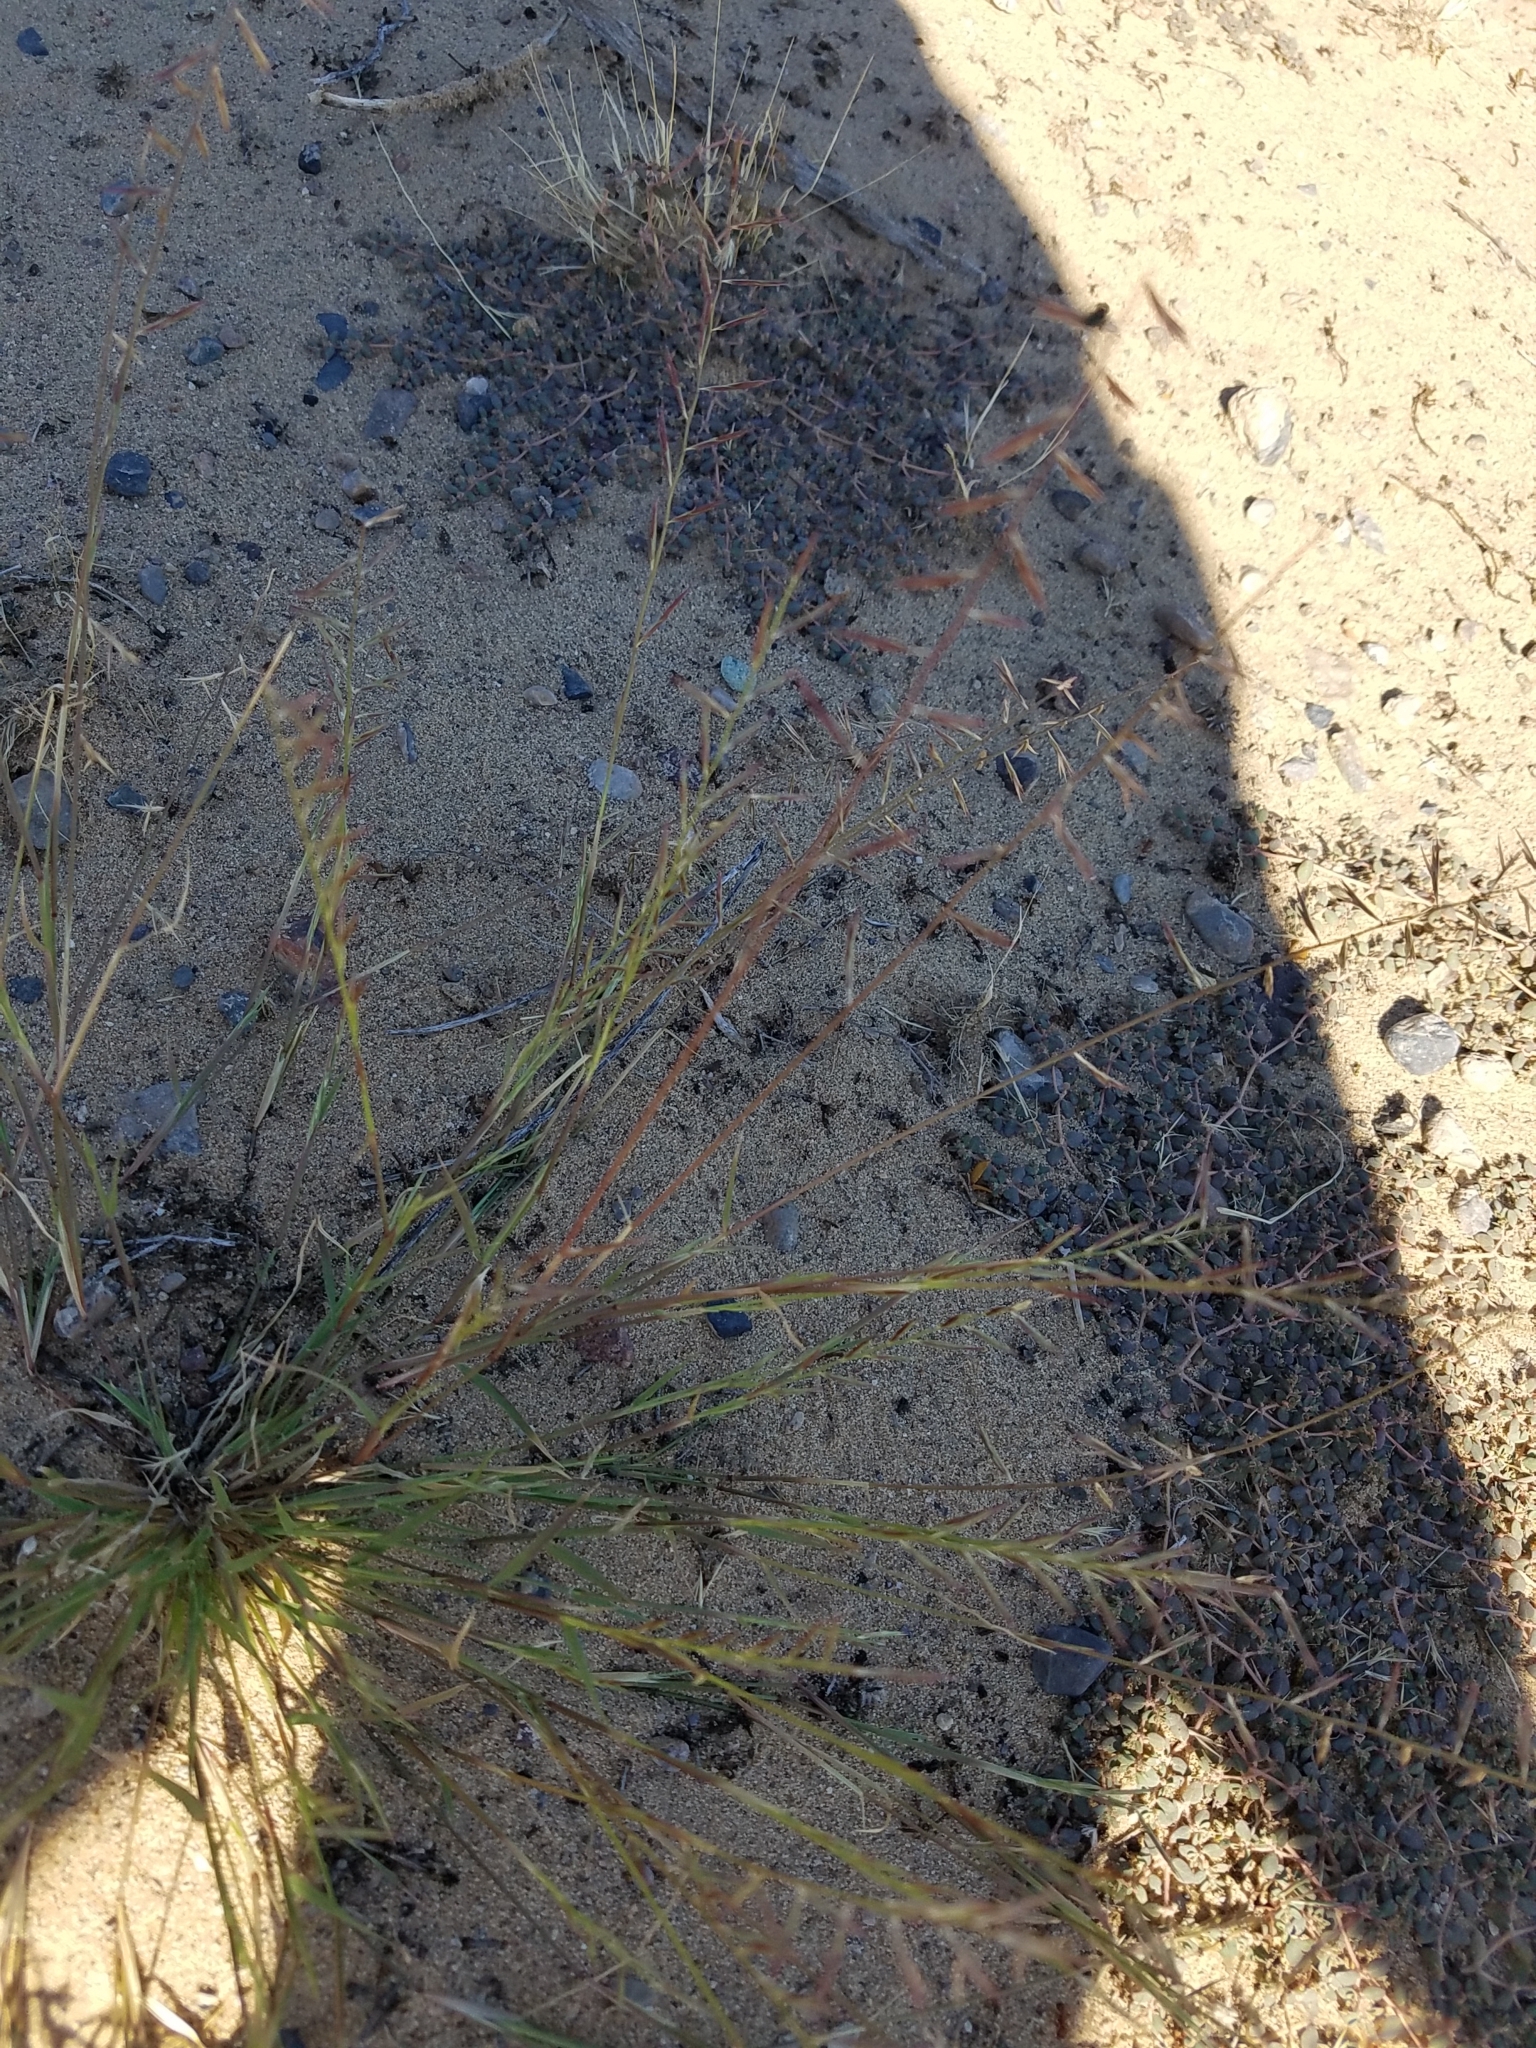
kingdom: Plantae
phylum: Tracheophyta
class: Liliopsida
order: Poales
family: Poaceae
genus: Bouteloua
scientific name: Bouteloua aristidoides
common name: Needle grama
